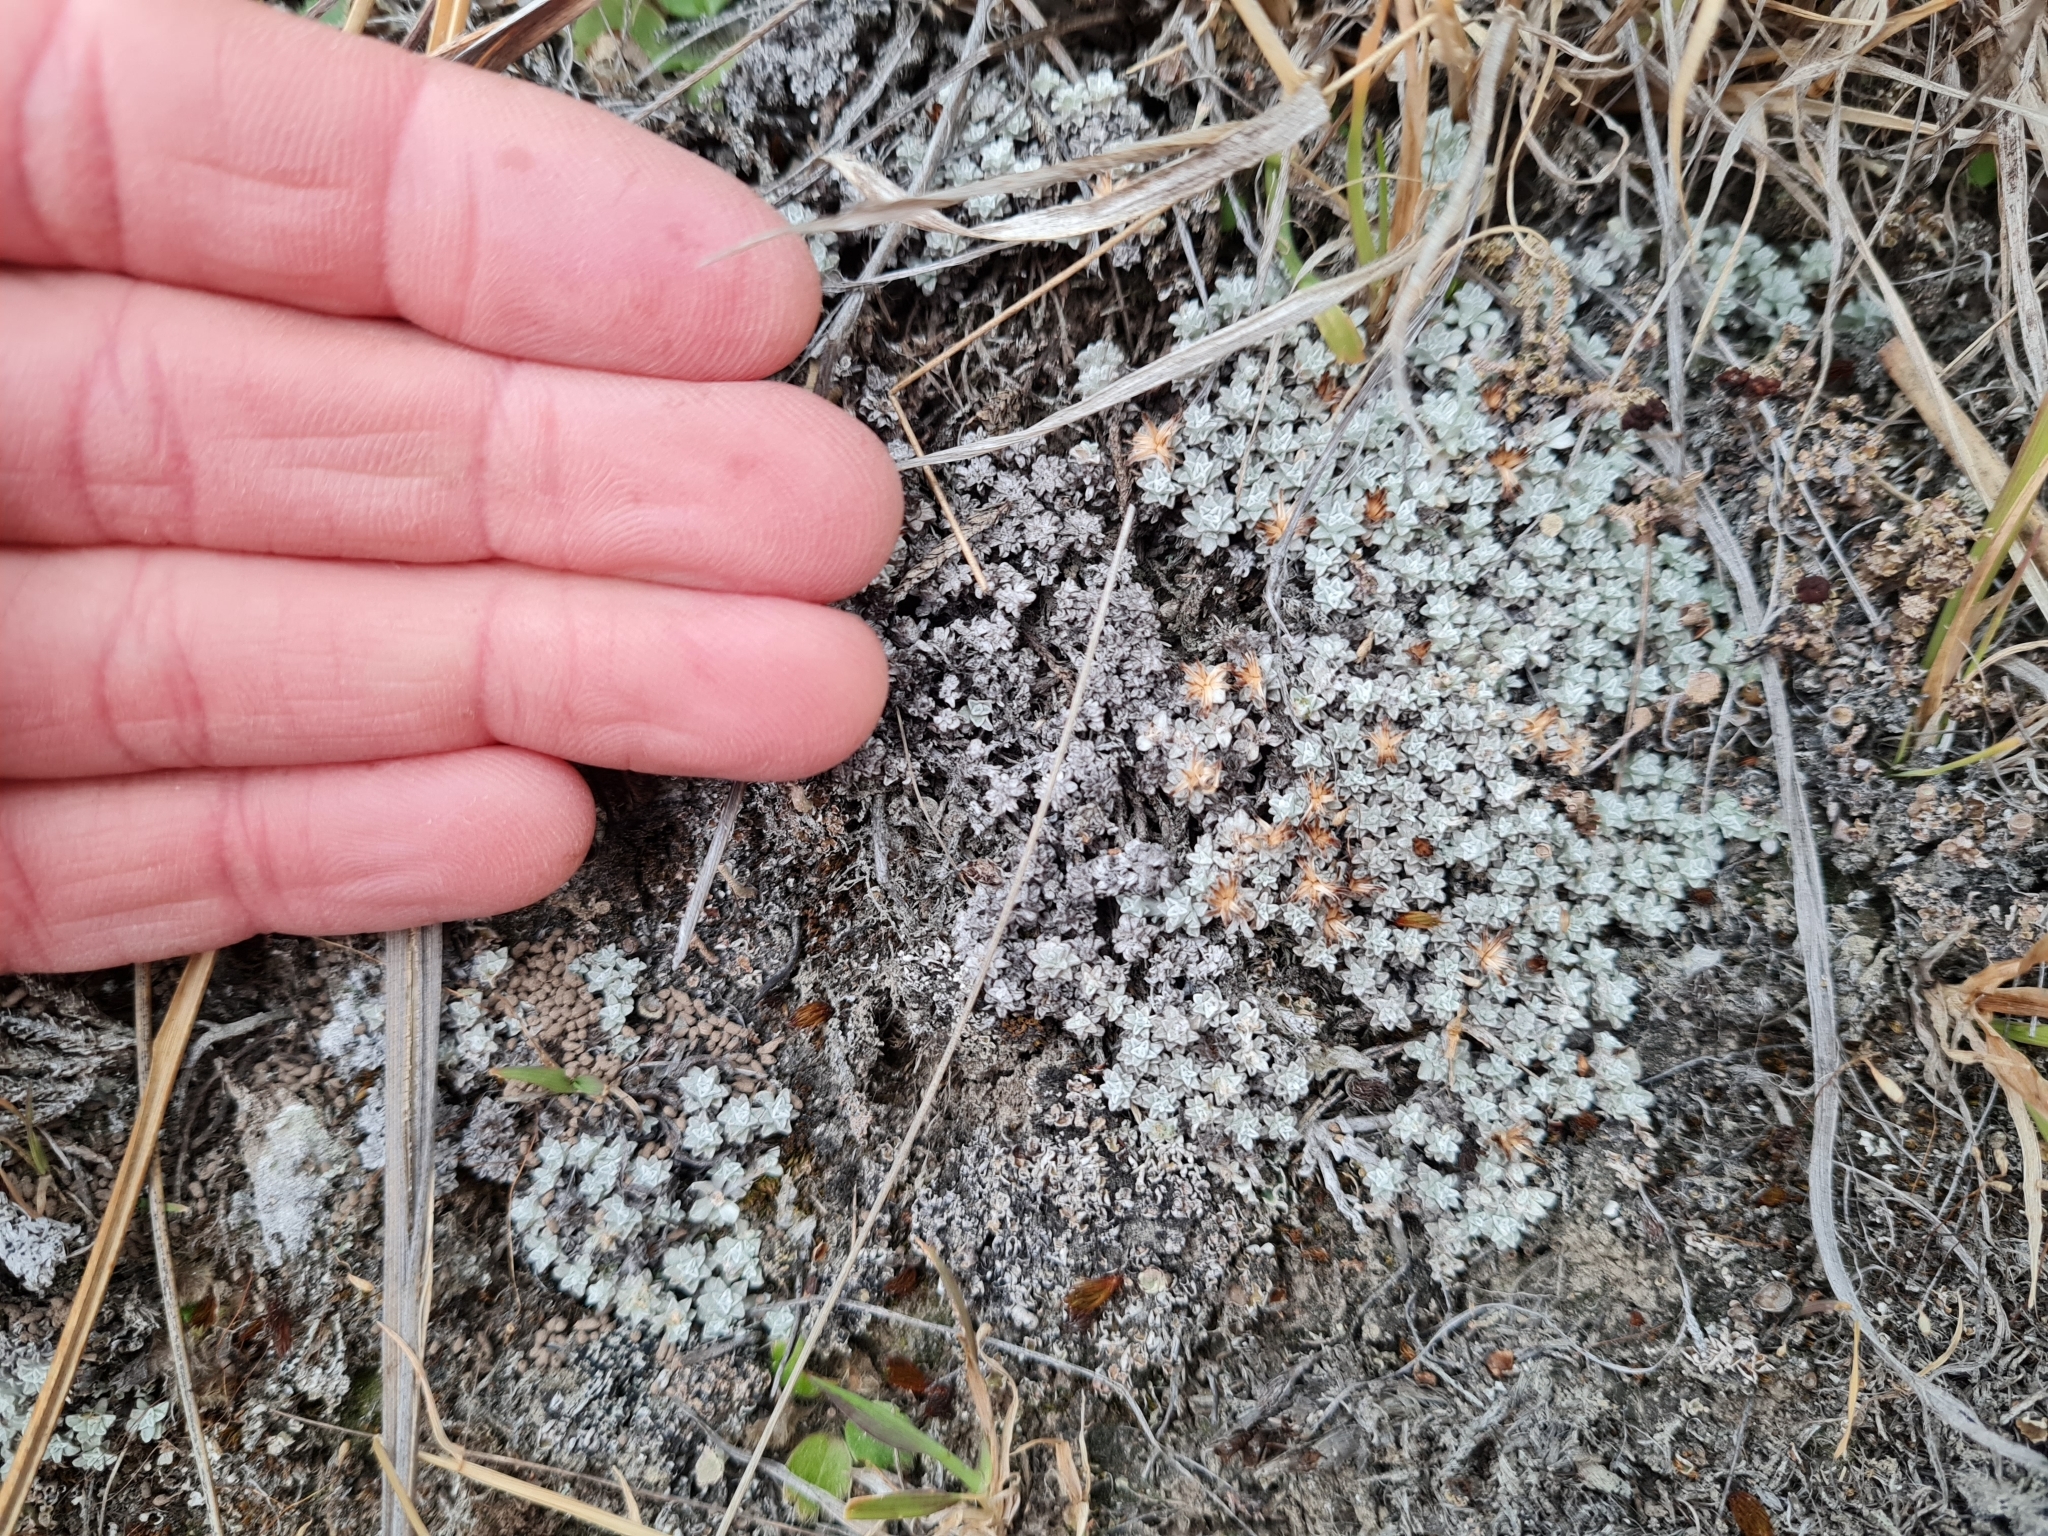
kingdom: Plantae
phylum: Tracheophyta
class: Magnoliopsida
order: Asterales
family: Asteraceae
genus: Raoulia
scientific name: Raoulia hookeri
